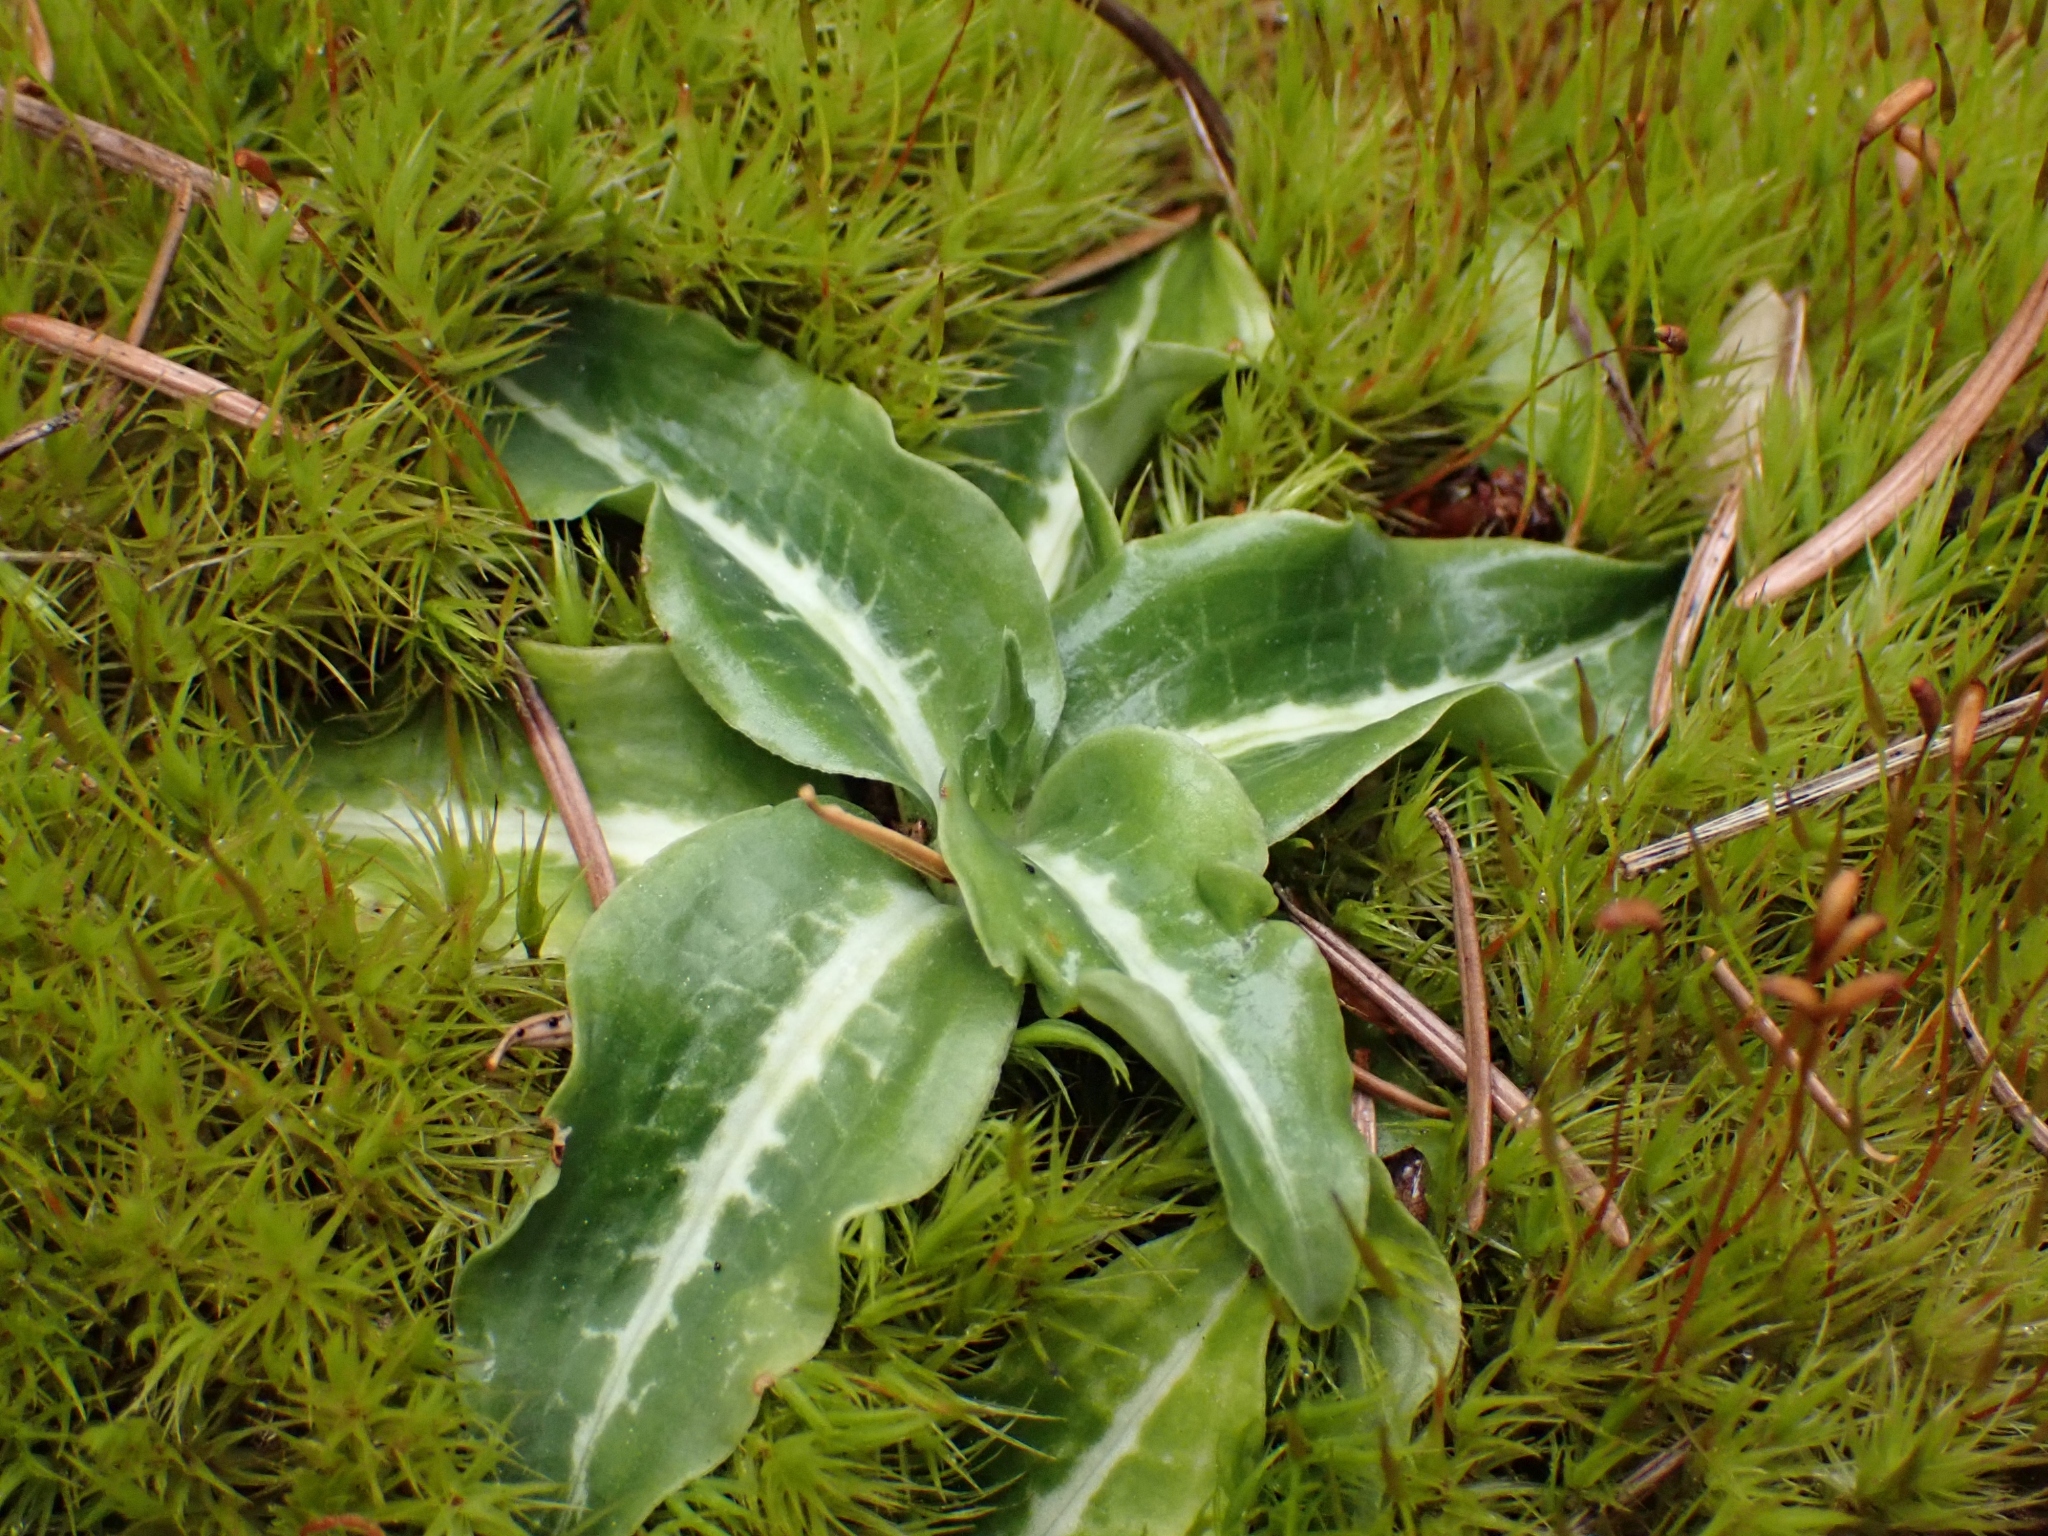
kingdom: Plantae
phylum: Tracheophyta
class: Liliopsida
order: Asparagales
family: Orchidaceae
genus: Goodyera
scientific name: Goodyera oblongifolia
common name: Giant rattlesnake-plantain
